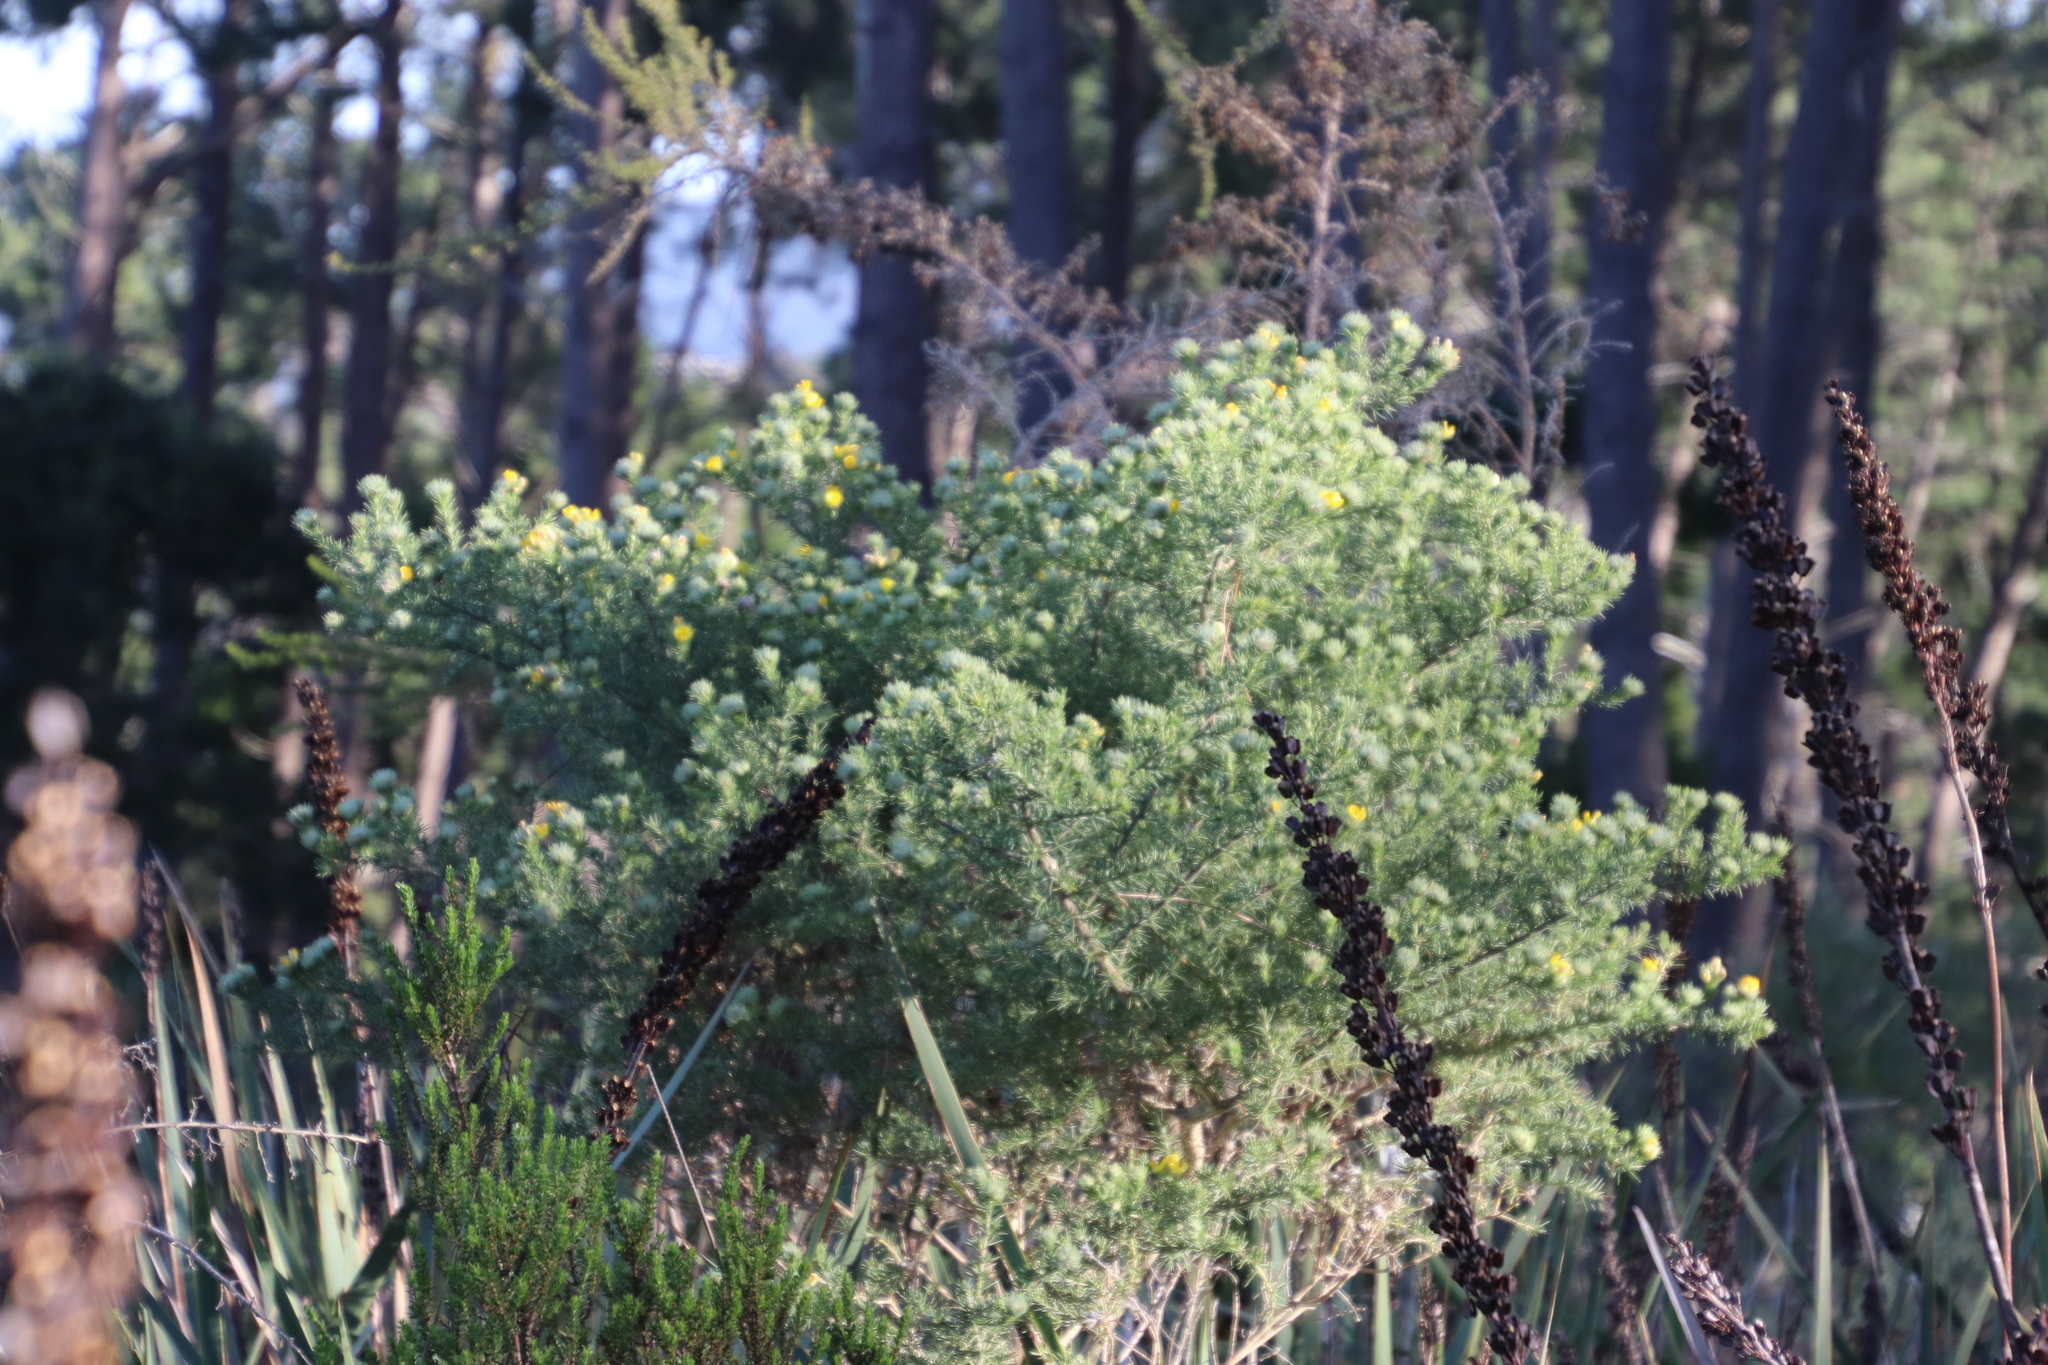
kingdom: Plantae
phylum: Tracheophyta
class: Magnoliopsida
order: Fabales
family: Fabaceae
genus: Aspalathus
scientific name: Aspalathus chenopoda
